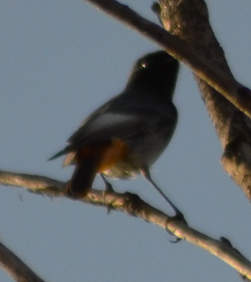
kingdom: Animalia
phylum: Chordata
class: Aves
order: Passeriformes
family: Muscicapidae
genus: Phoenicurus
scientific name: Phoenicurus ochruros
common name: Black redstart
